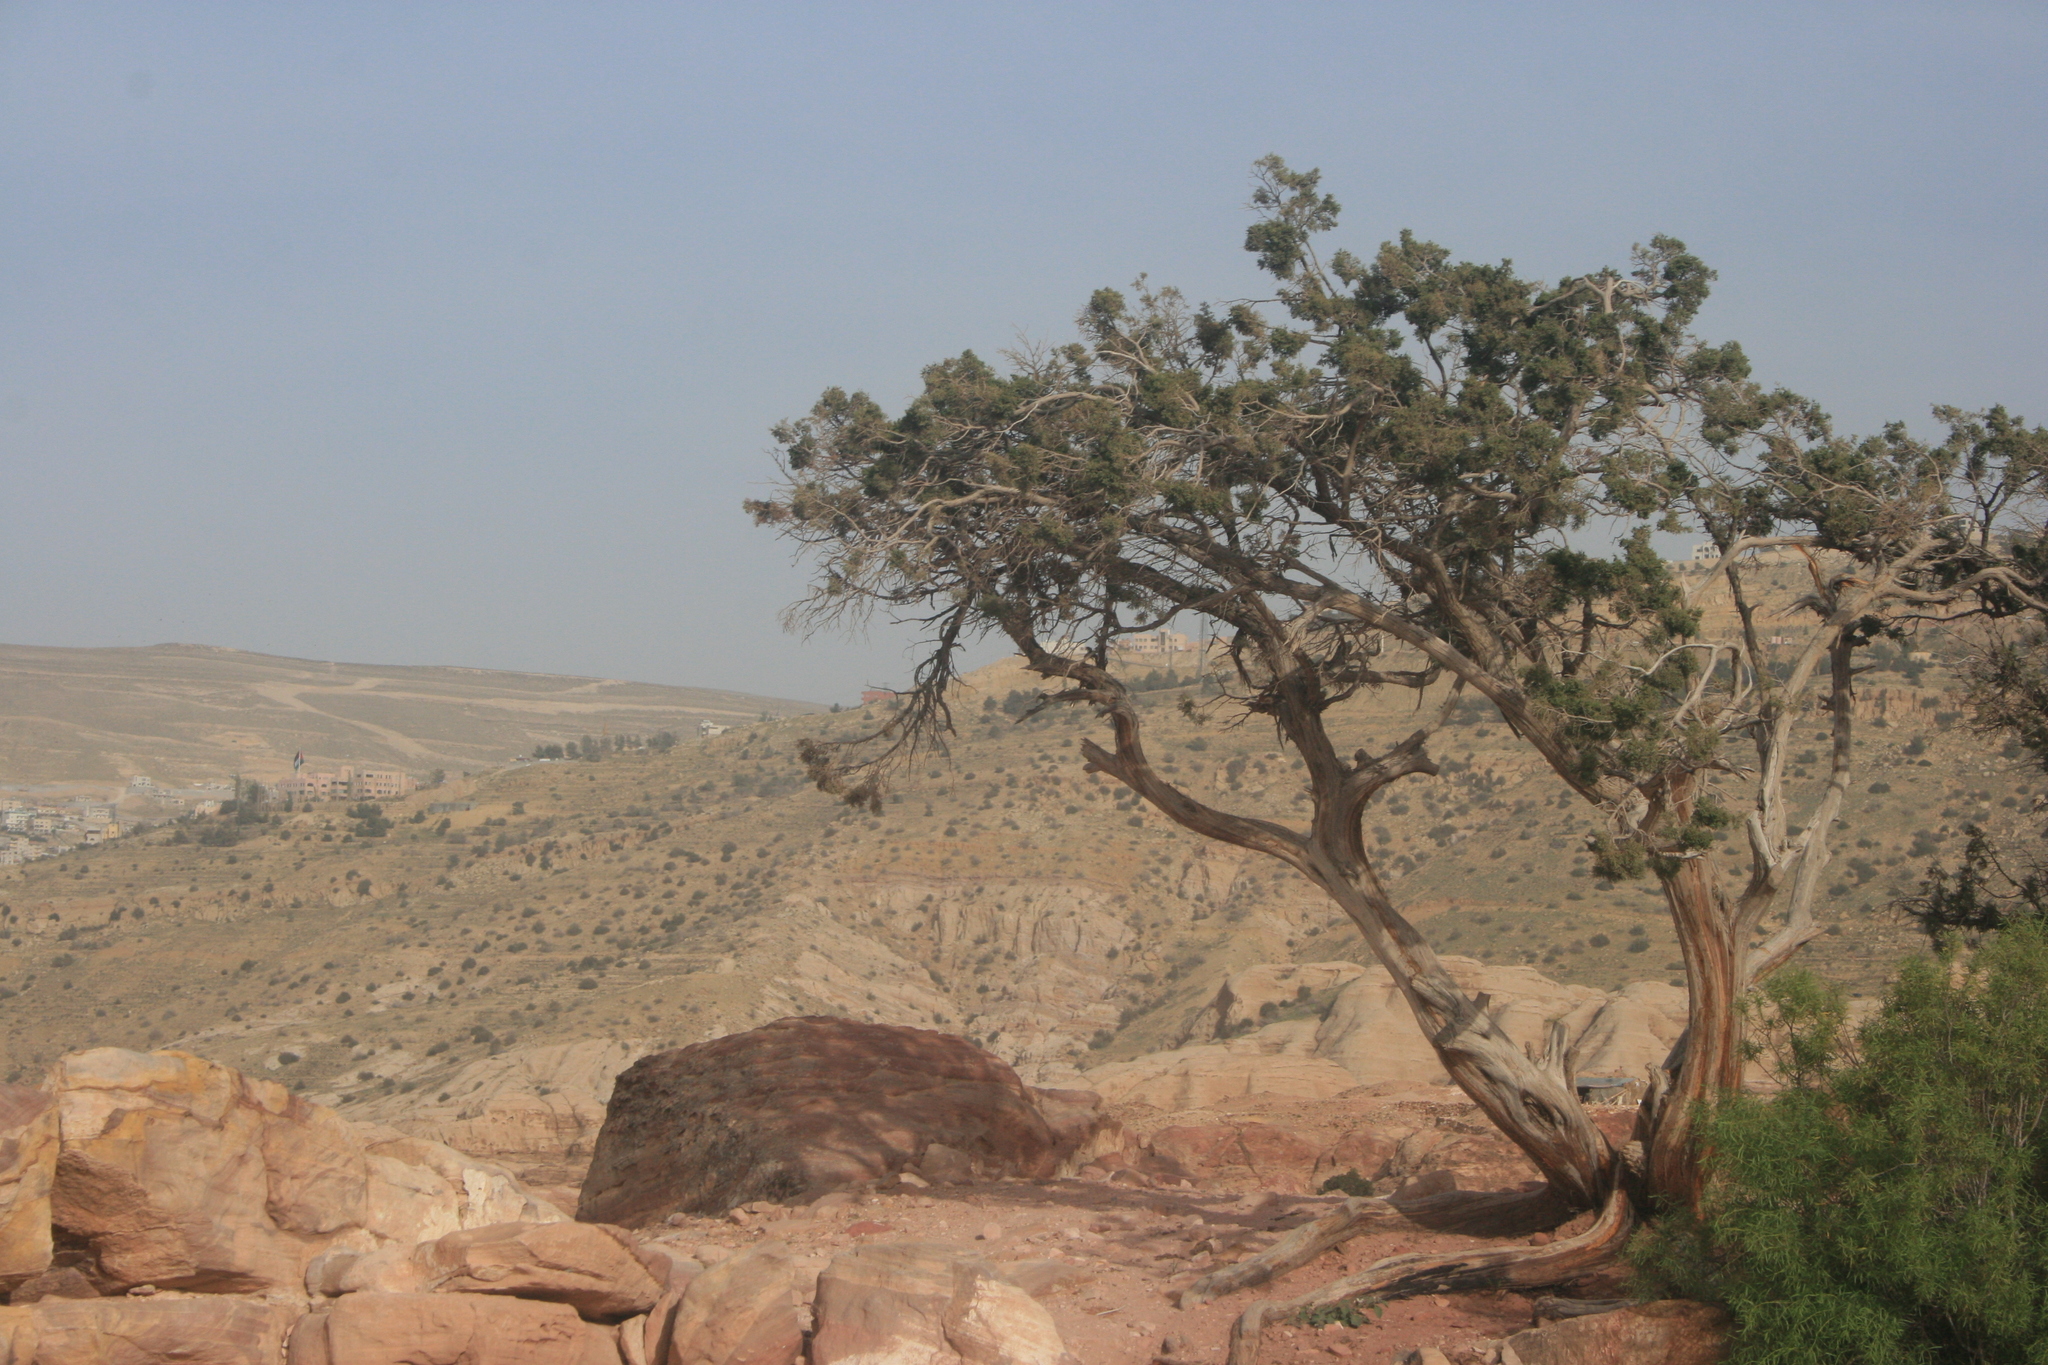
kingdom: Plantae
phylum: Tracheophyta
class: Pinopsida
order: Pinales
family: Cupressaceae
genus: Juniperus
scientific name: Juniperus phoenicea
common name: Phoenician juniper
